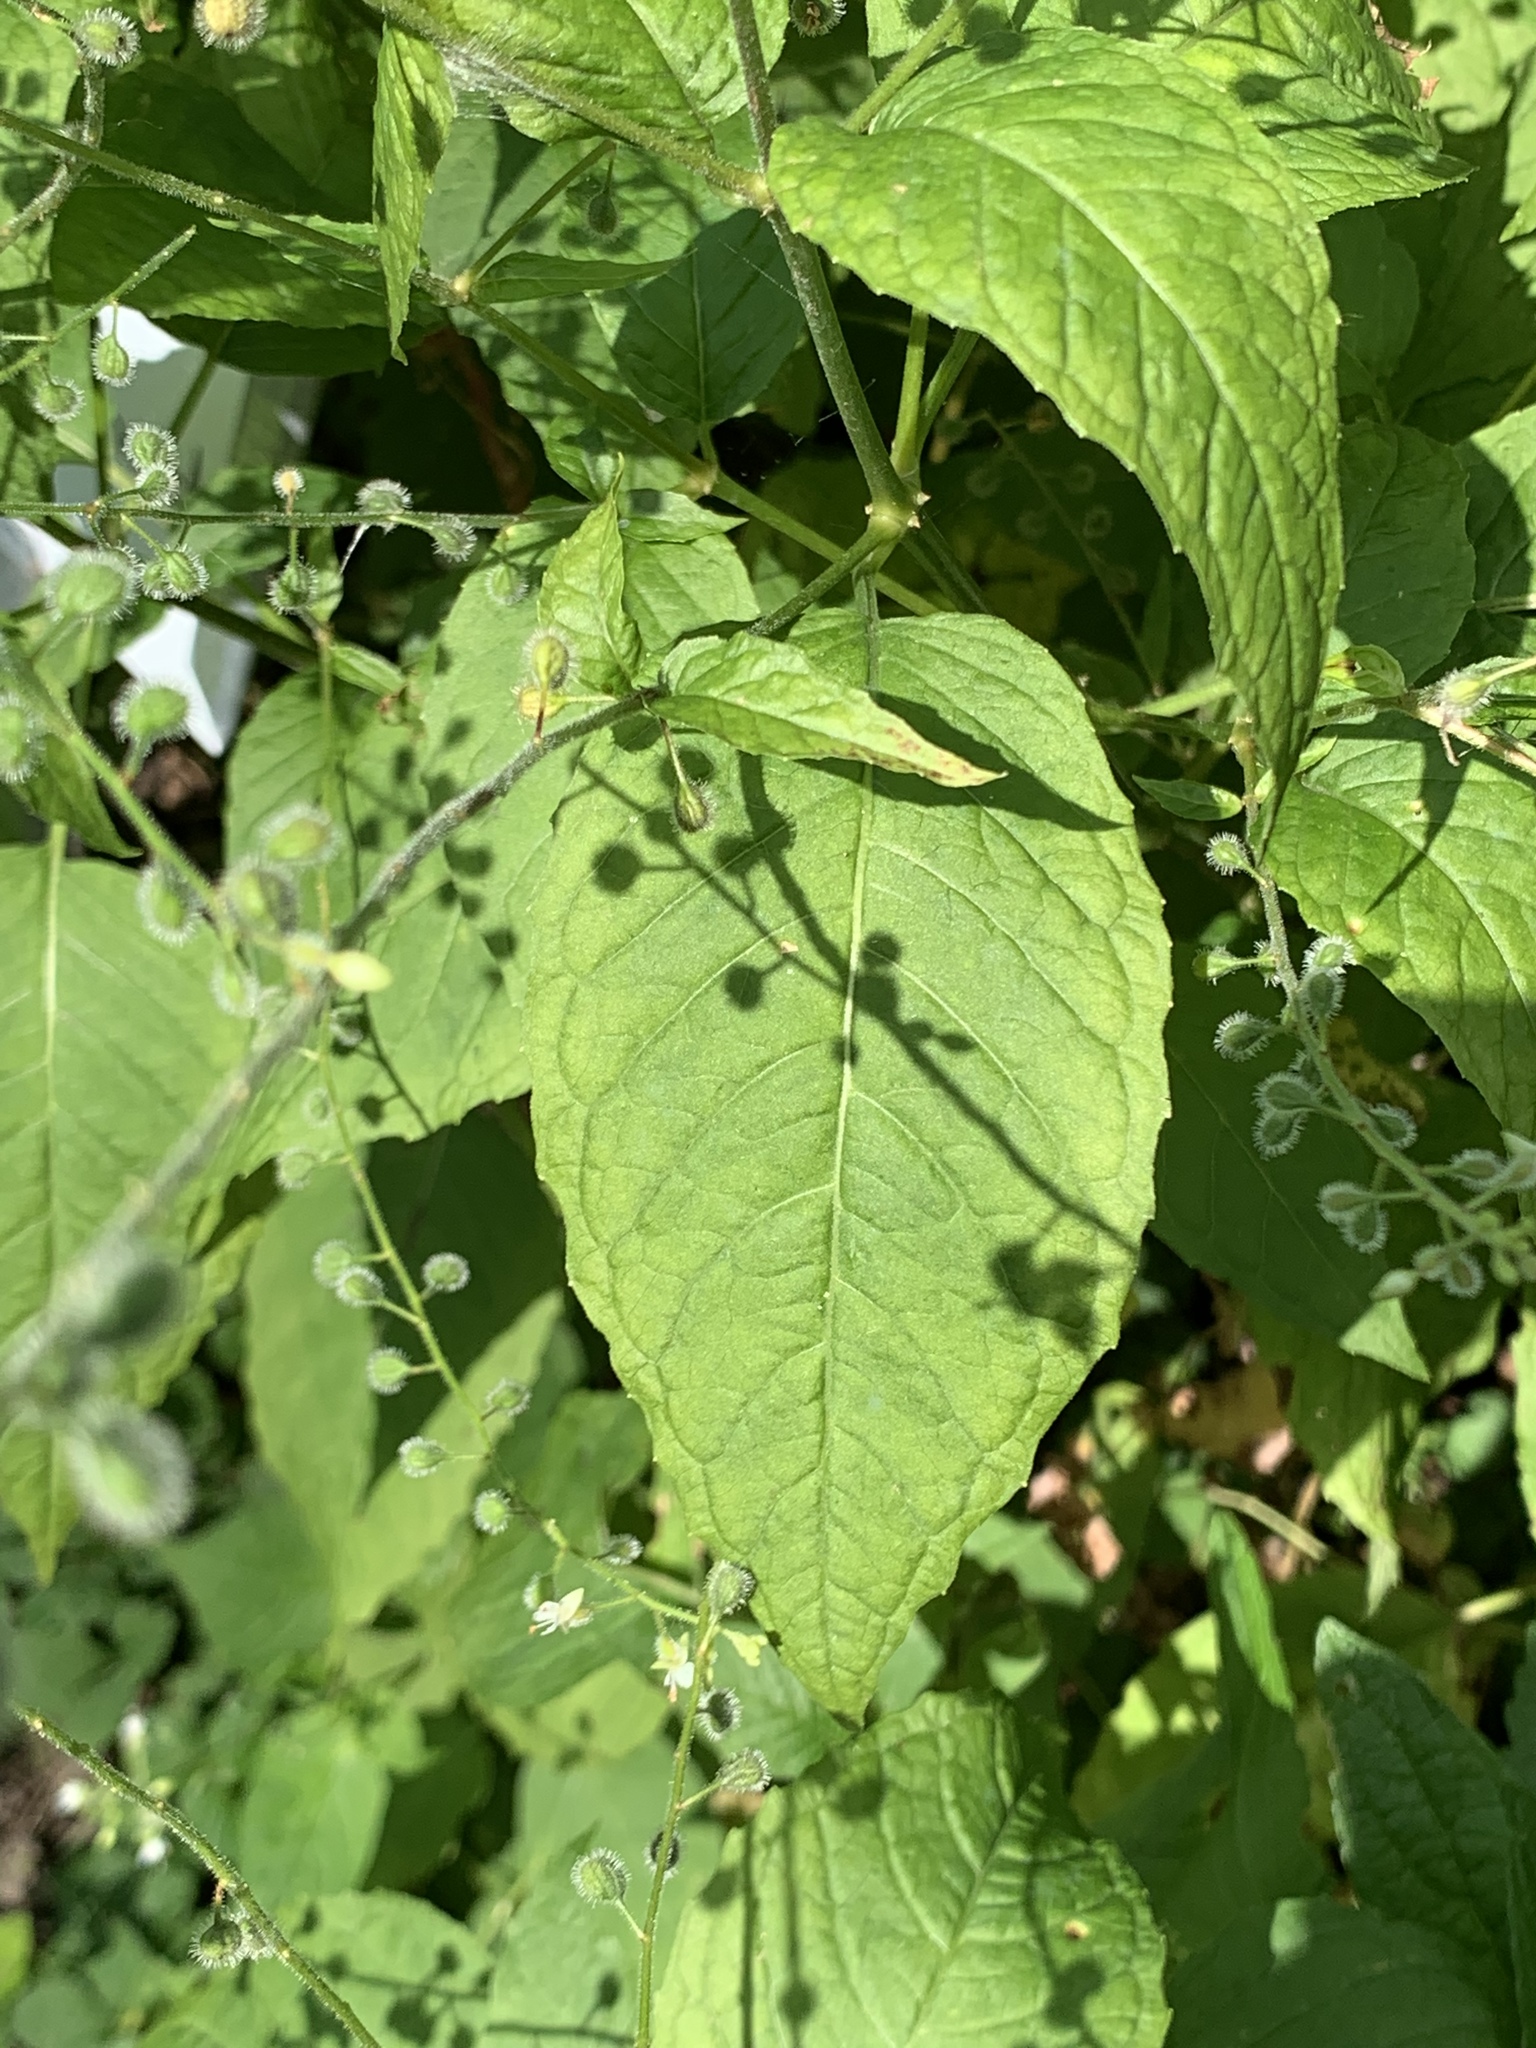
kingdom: Plantae
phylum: Tracheophyta
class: Magnoliopsida
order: Myrtales
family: Onagraceae
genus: Circaea
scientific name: Circaea canadensis
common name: Broad-leaved enchanter's nightshade
